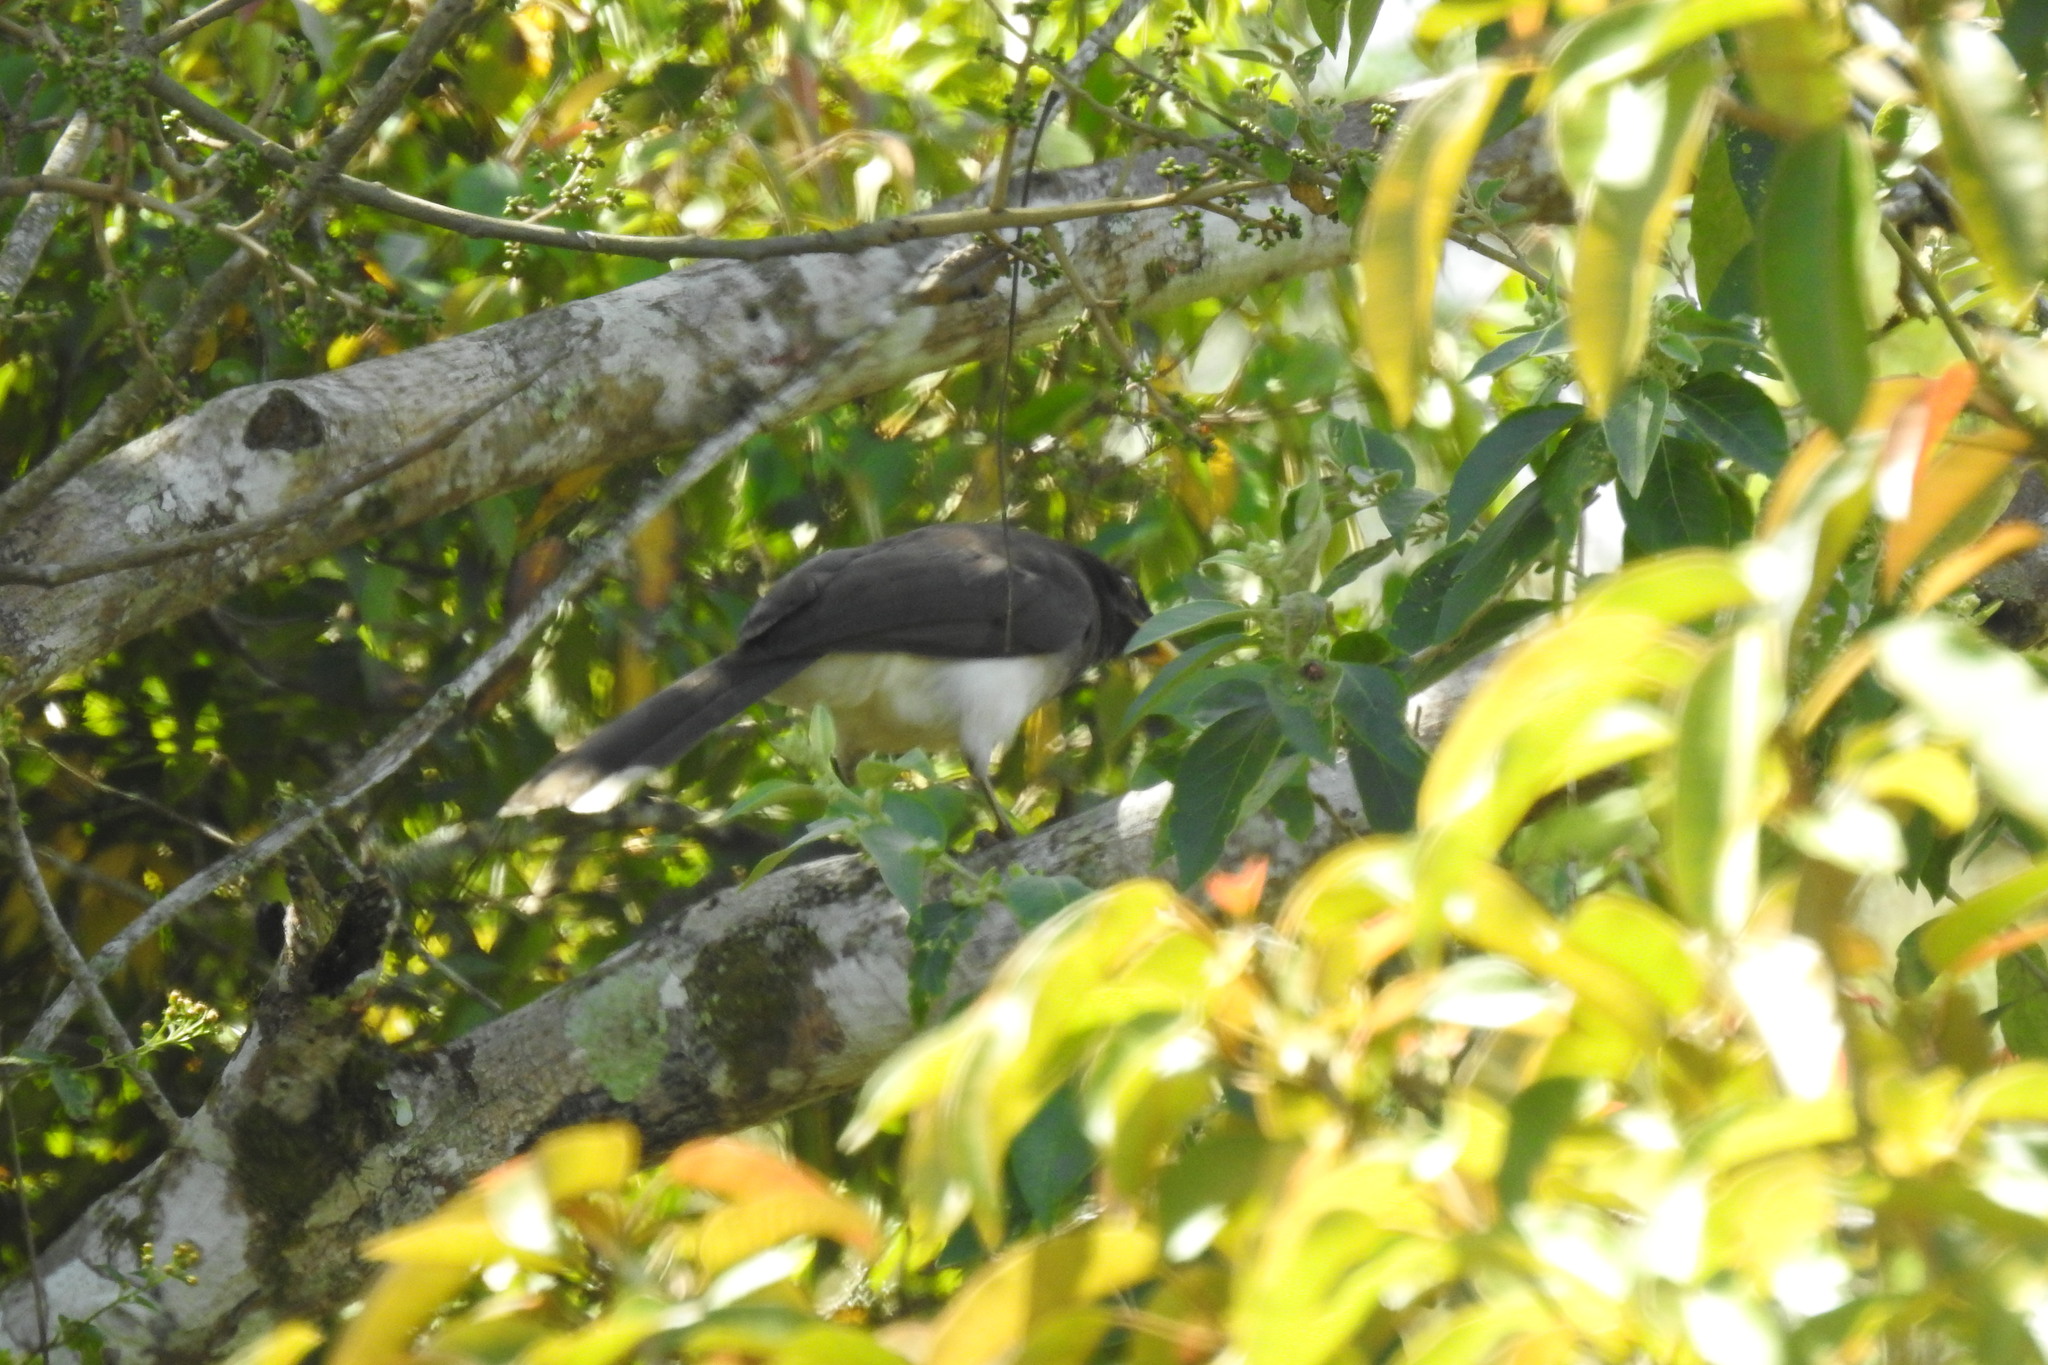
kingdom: Animalia
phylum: Chordata
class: Aves
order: Passeriformes
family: Corvidae
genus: Psilorhinus
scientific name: Psilorhinus morio
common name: Brown jay
